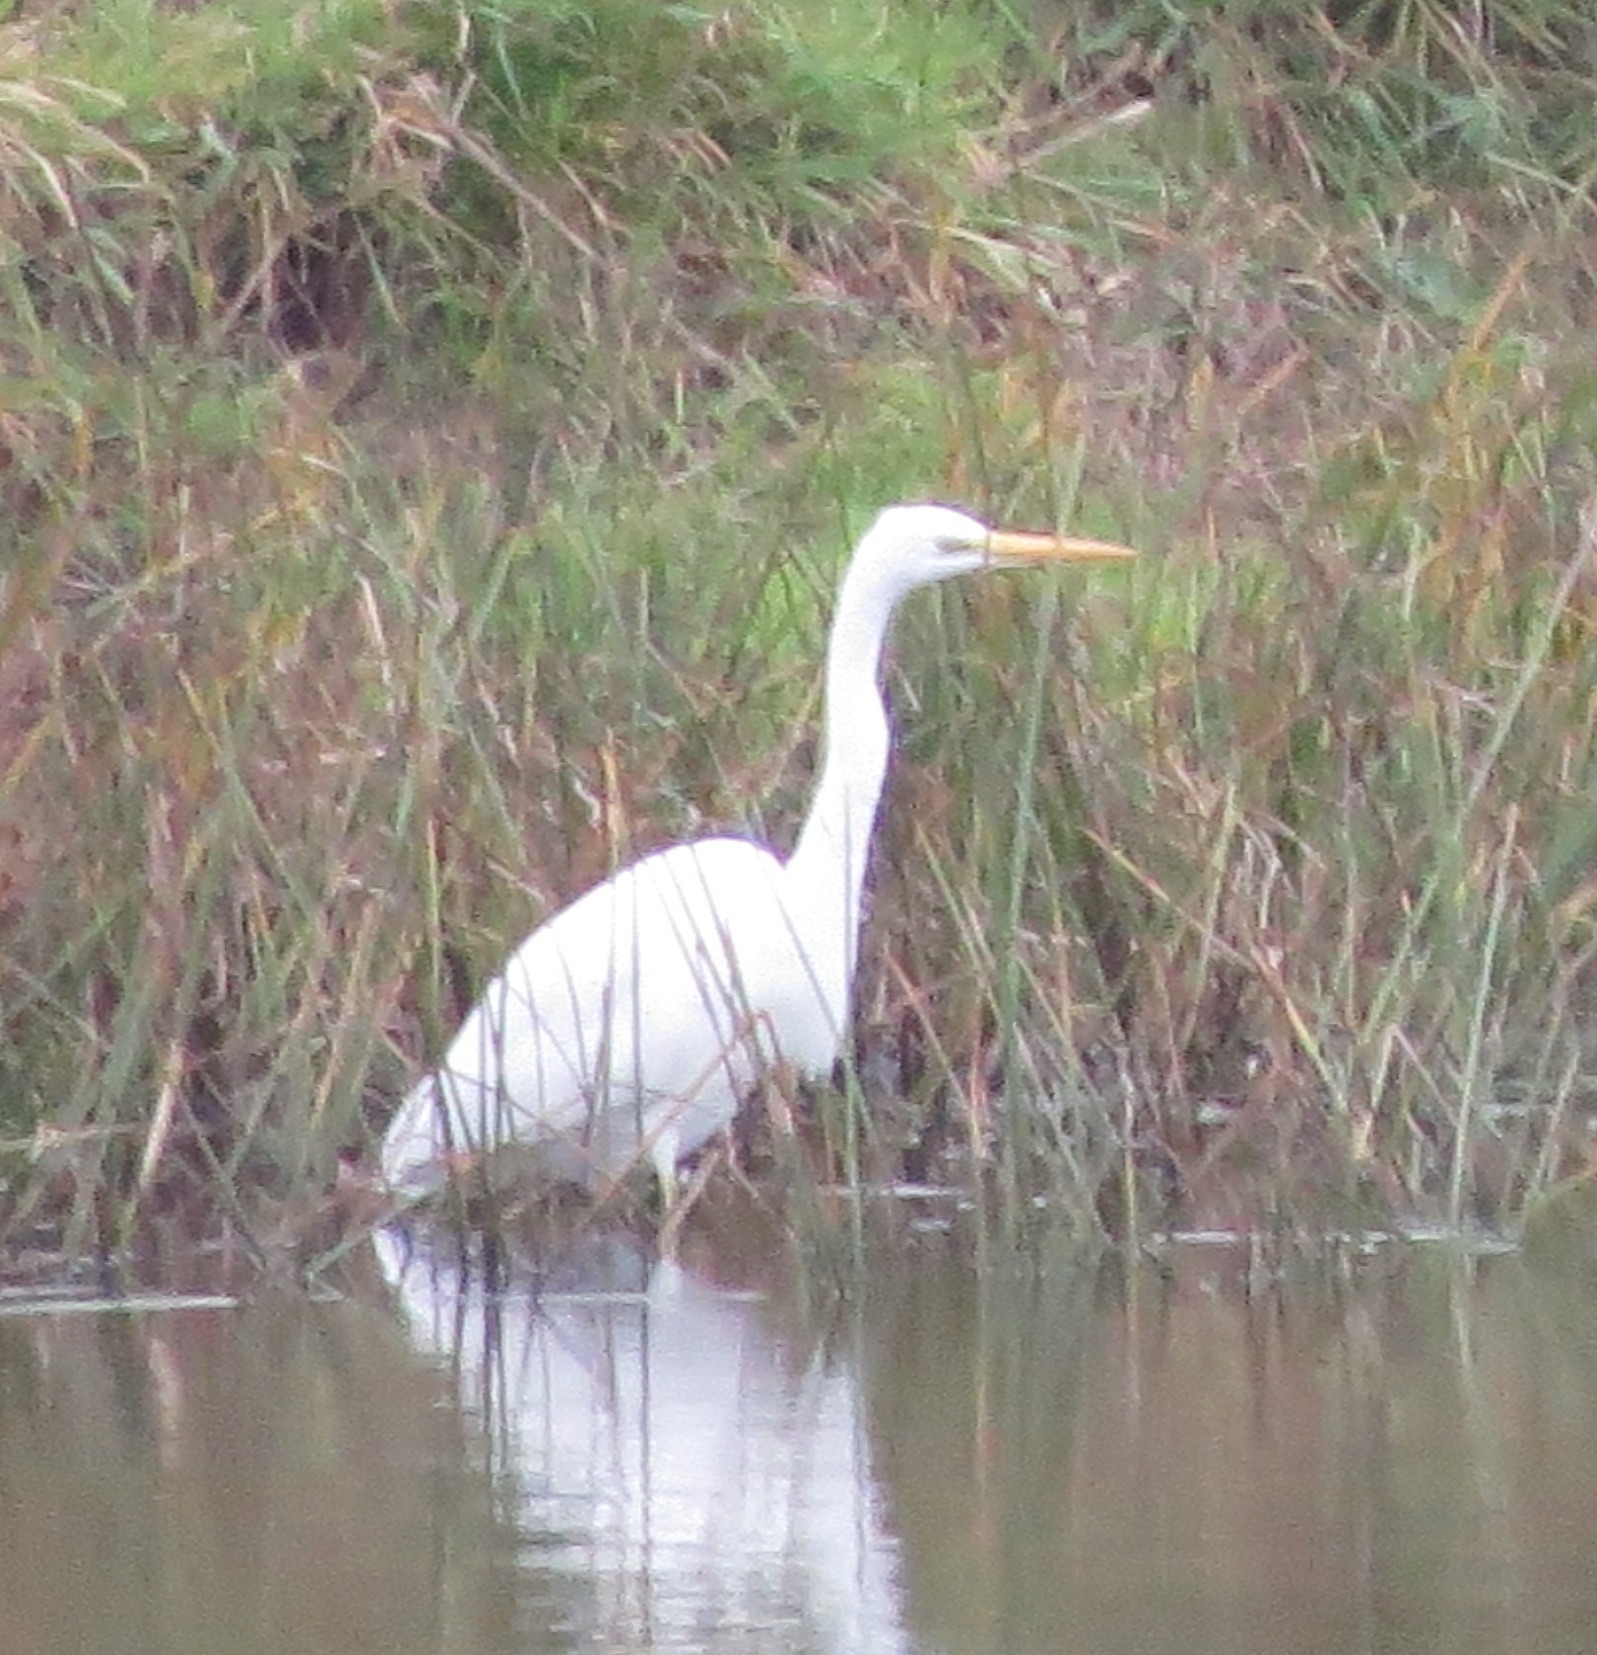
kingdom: Animalia
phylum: Chordata
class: Aves
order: Pelecaniformes
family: Ardeidae
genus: Ardea
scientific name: Ardea alba
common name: Great egret
